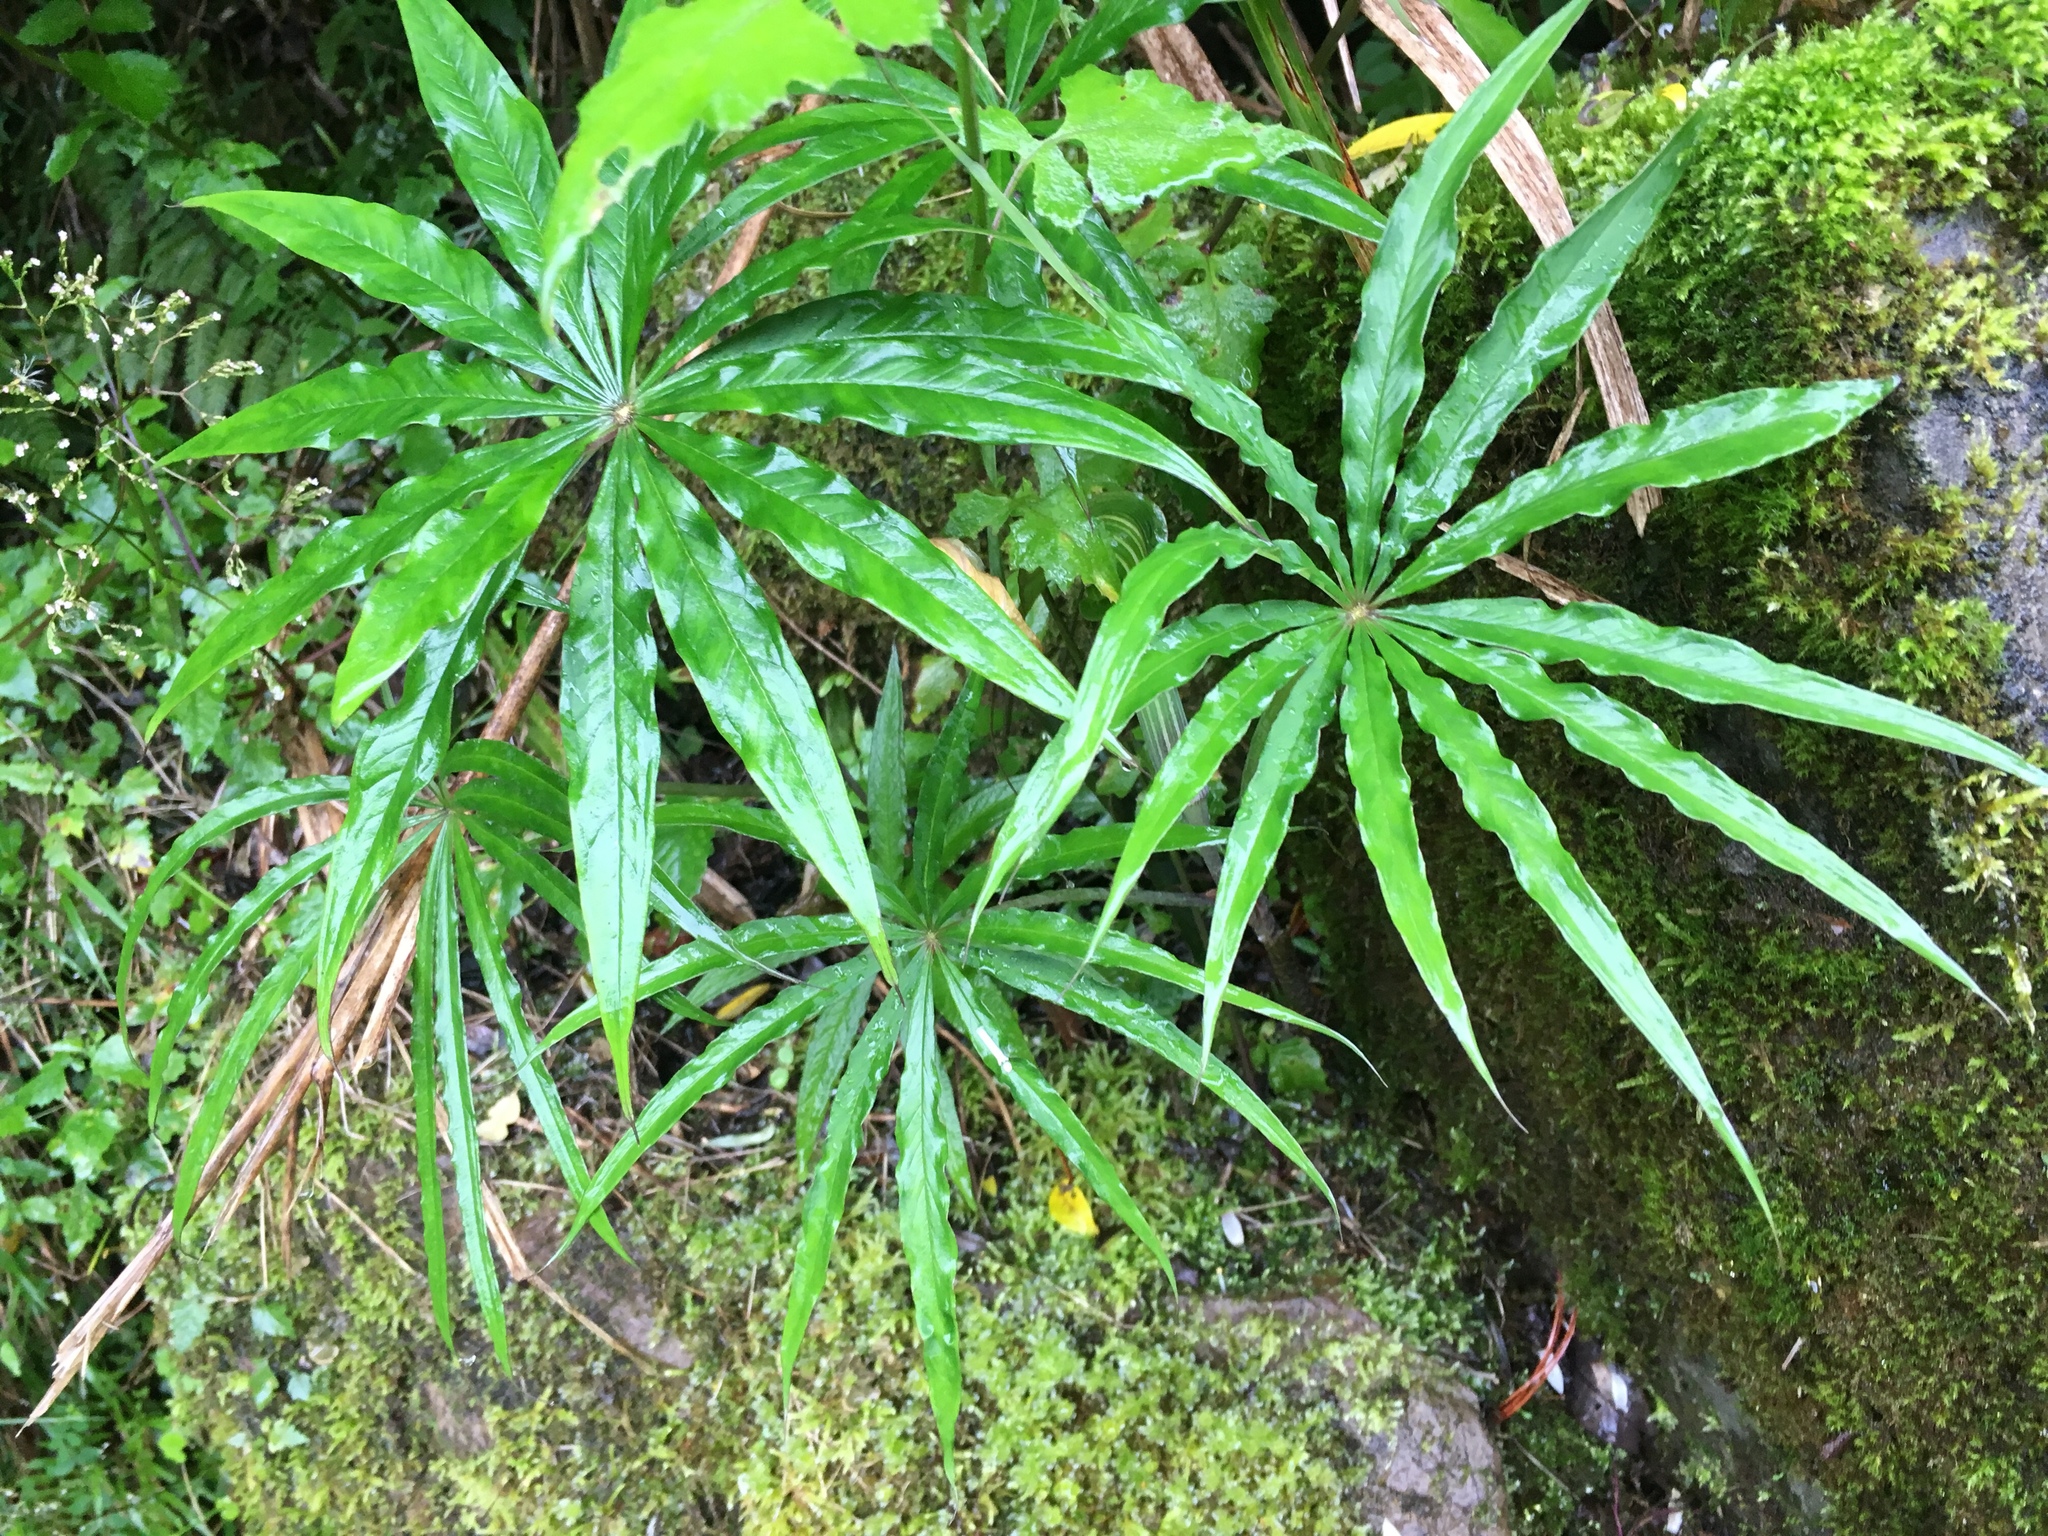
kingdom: Plantae
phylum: Tracheophyta
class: Liliopsida
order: Alismatales
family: Araceae
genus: Arisaema
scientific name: Arisaema consanguineum
